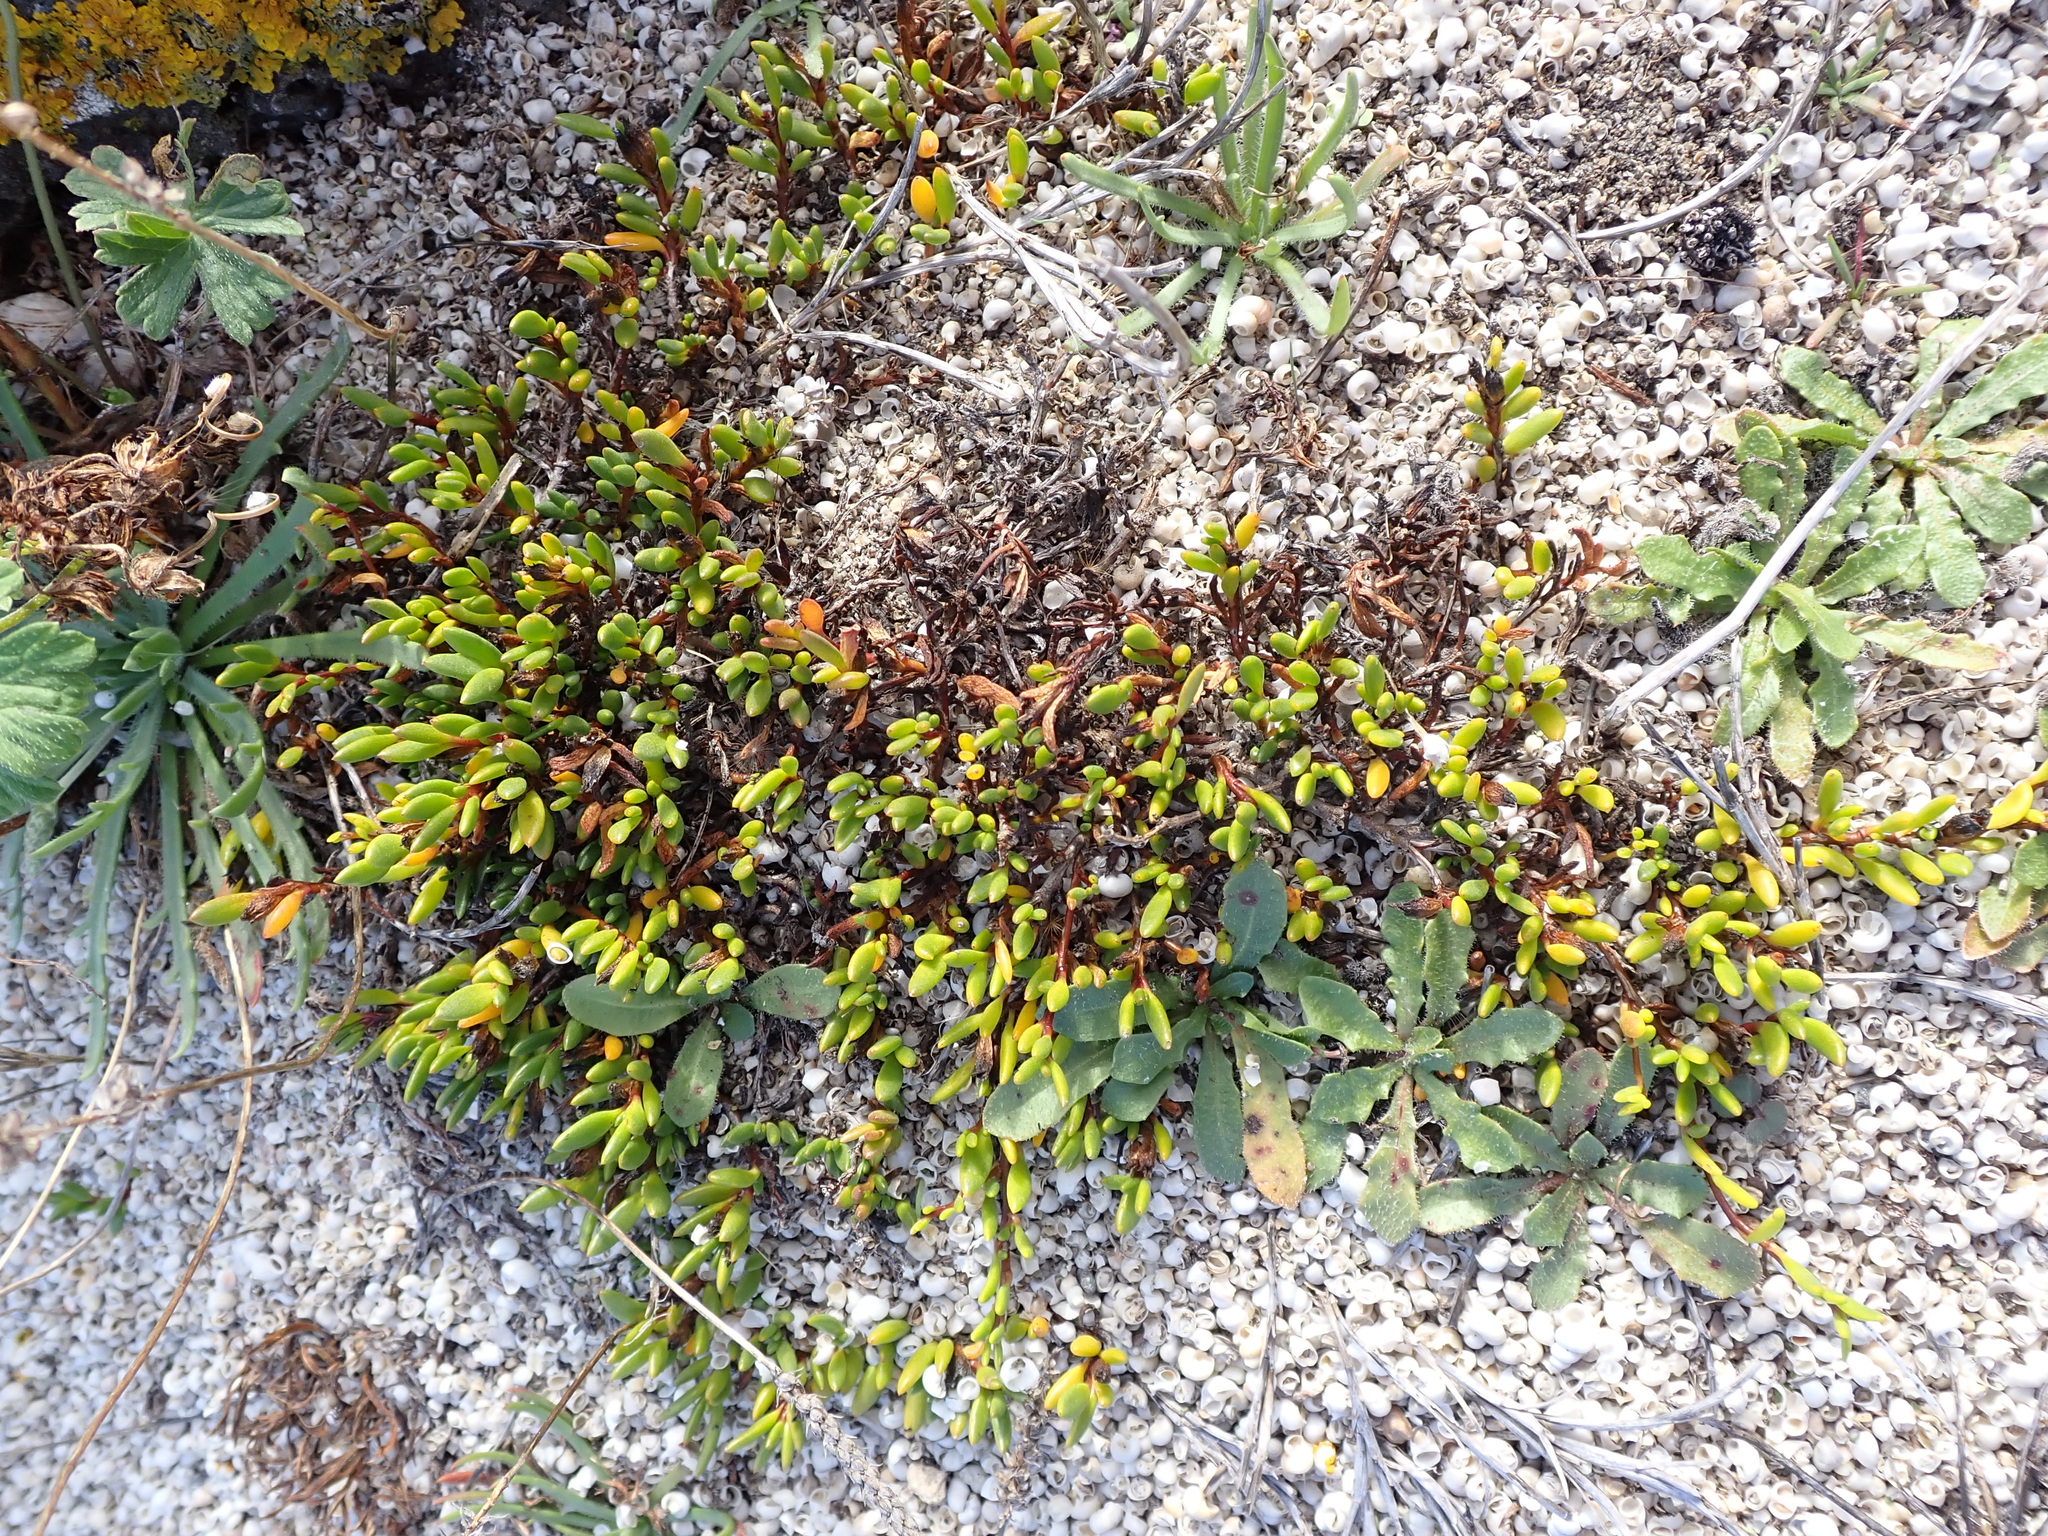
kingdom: Plantae
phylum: Tracheophyta
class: Magnoliopsida
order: Solanales
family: Convolvulaceae
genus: Wilsonia
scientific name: Wilsonia backhousei
